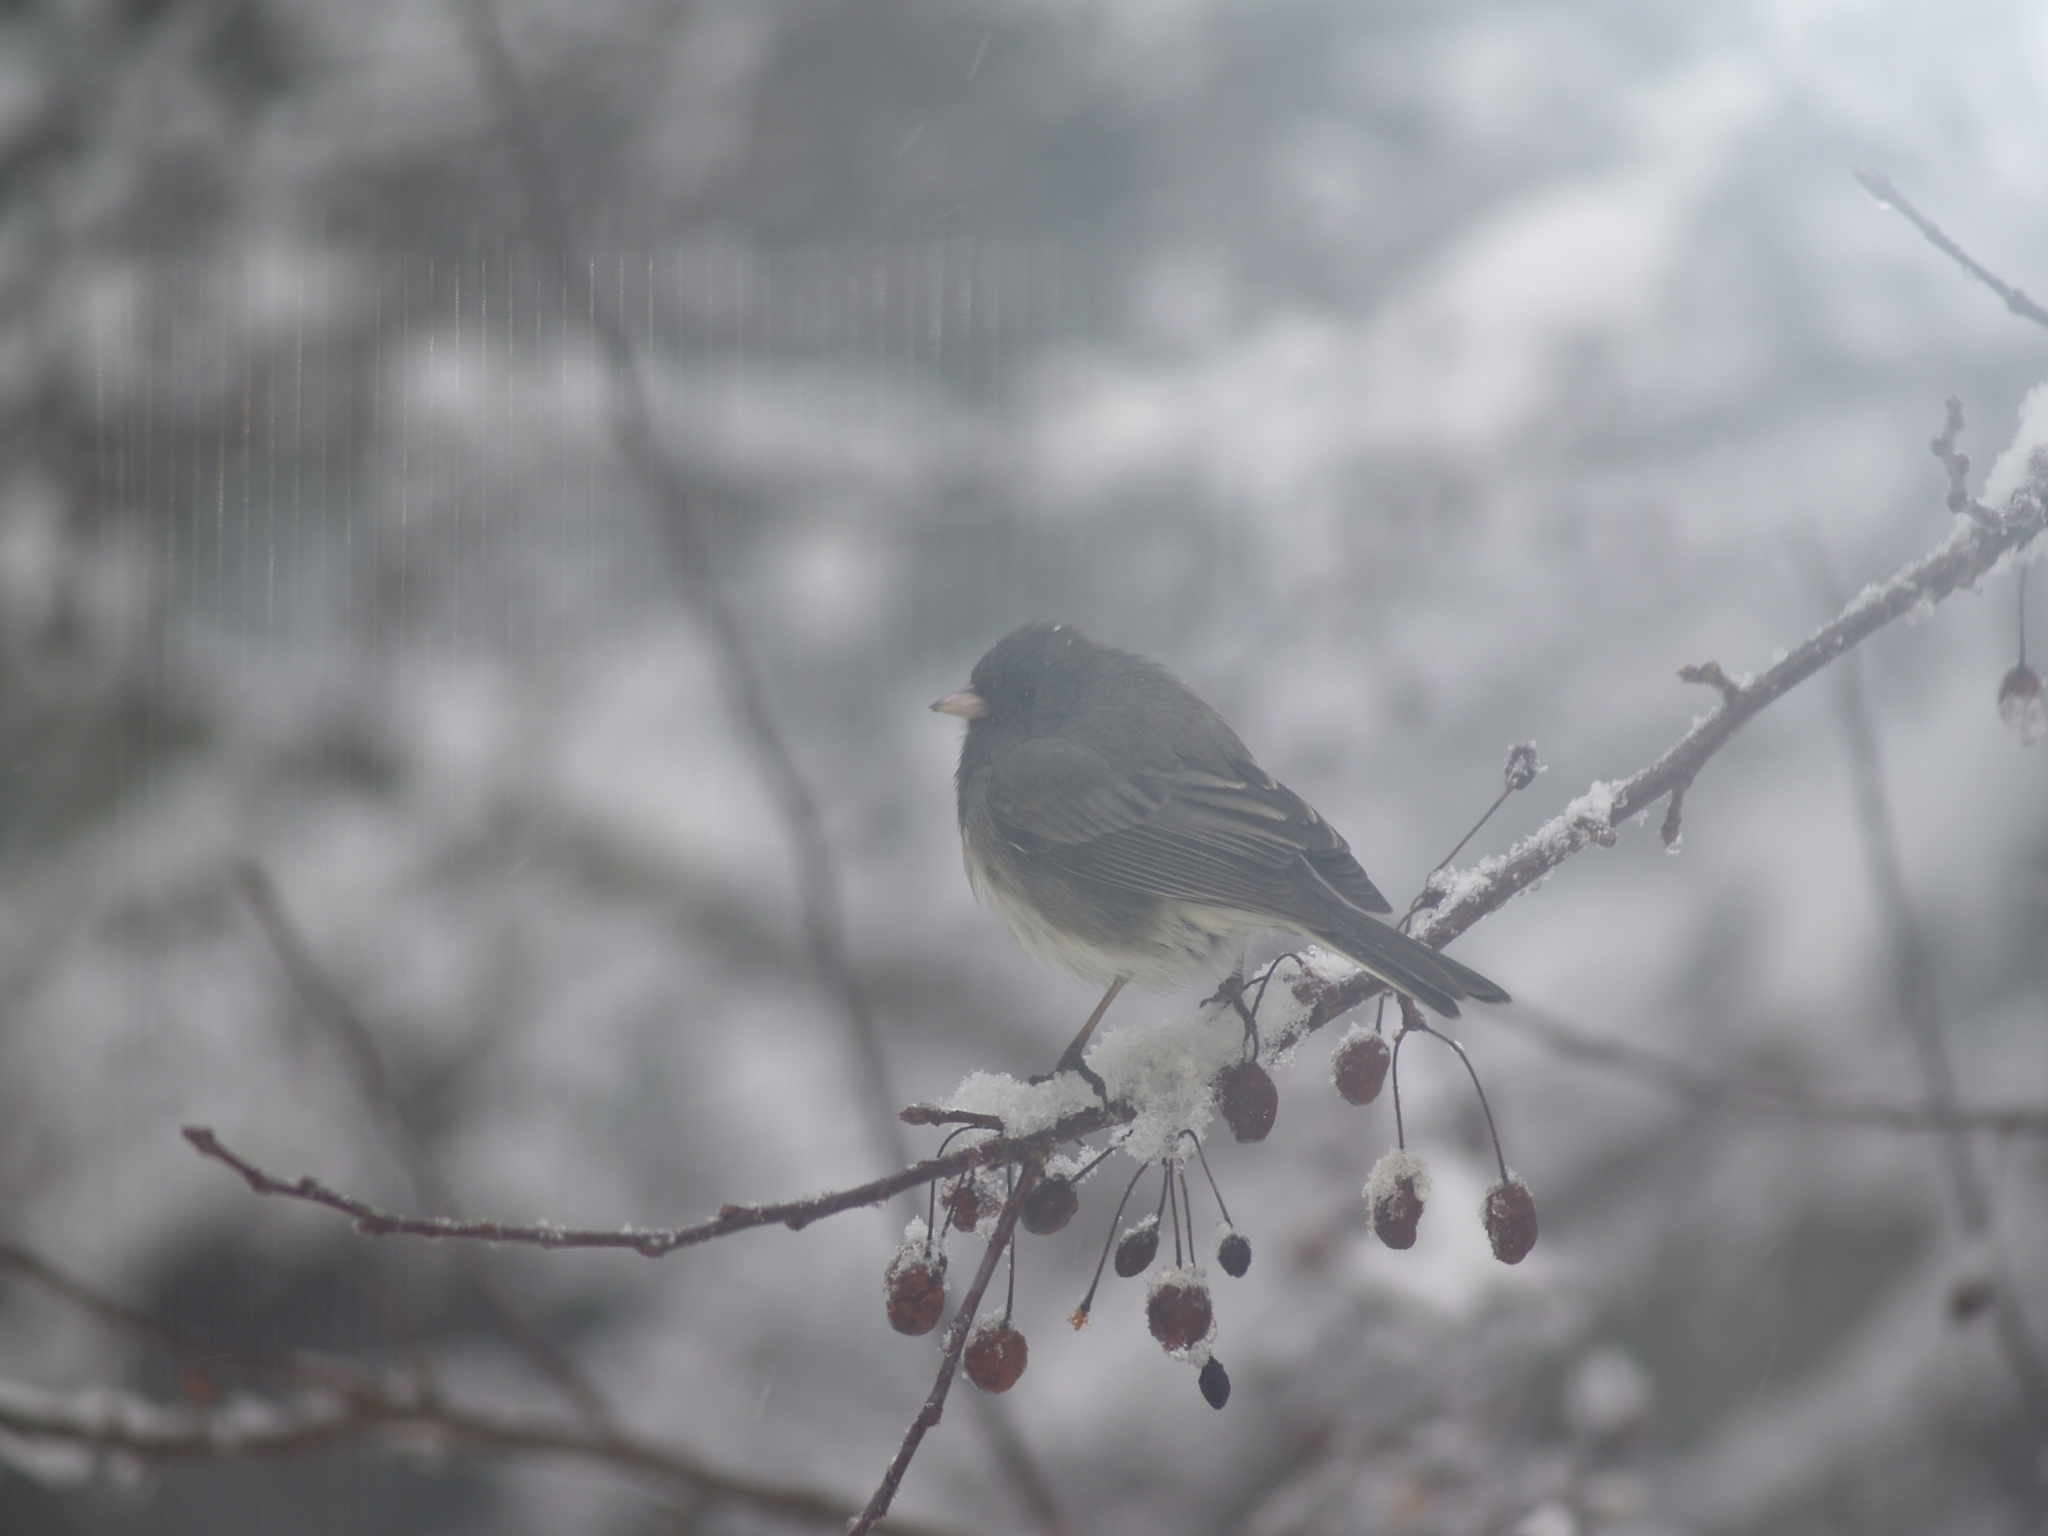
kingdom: Animalia
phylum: Chordata
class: Aves
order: Passeriformes
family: Passerellidae
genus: Junco
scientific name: Junco hyemalis
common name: Dark-eyed junco
